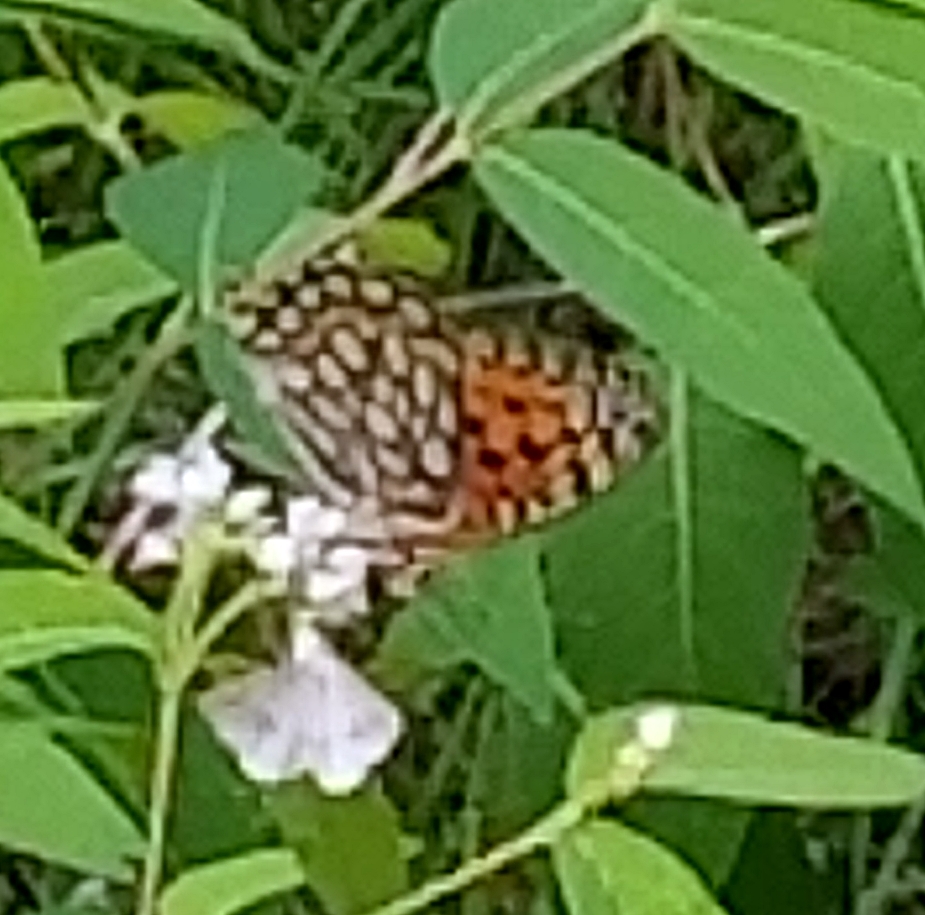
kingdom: Animalia
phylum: Arthropoda
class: Insecta
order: Lepidoptera
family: Nymphalidae
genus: Speyeria
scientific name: Speyeria edwardsii
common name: Edwards' fritillary
